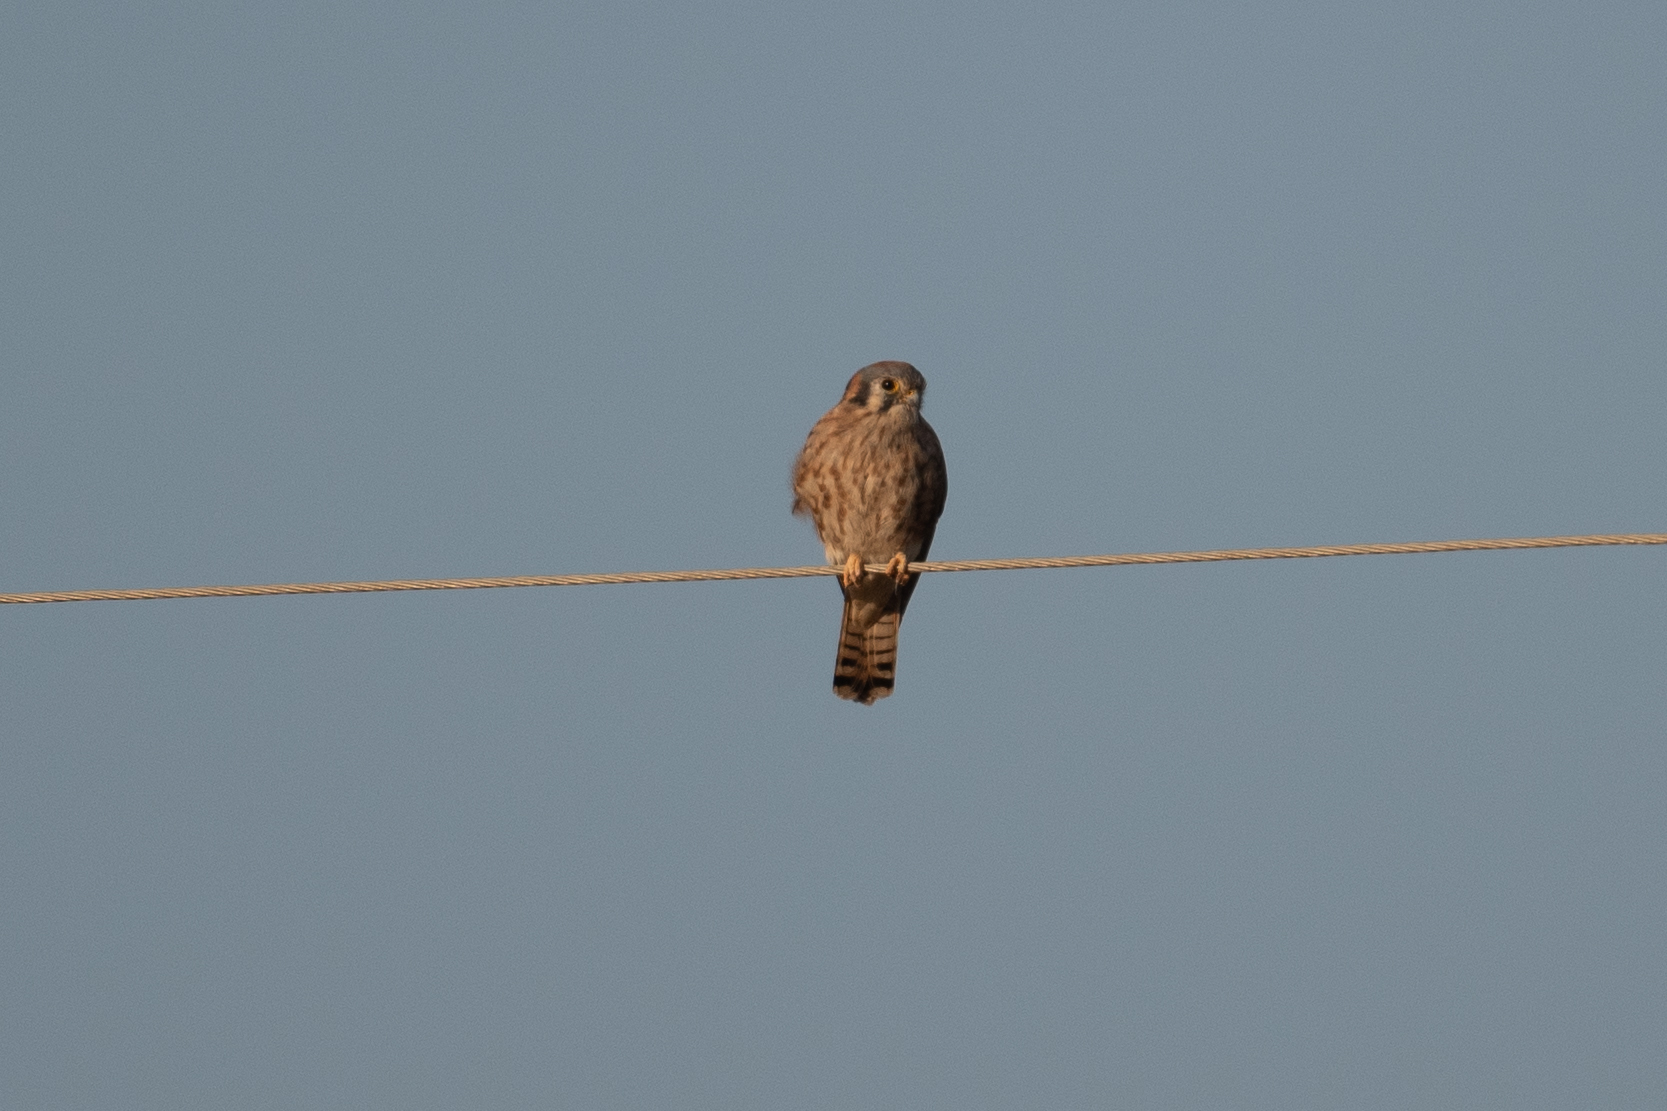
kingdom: Animalia
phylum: Chordata
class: Aves
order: Falconiformes
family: Falconidae
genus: Falco
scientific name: Falco sparverius
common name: American kestrel
